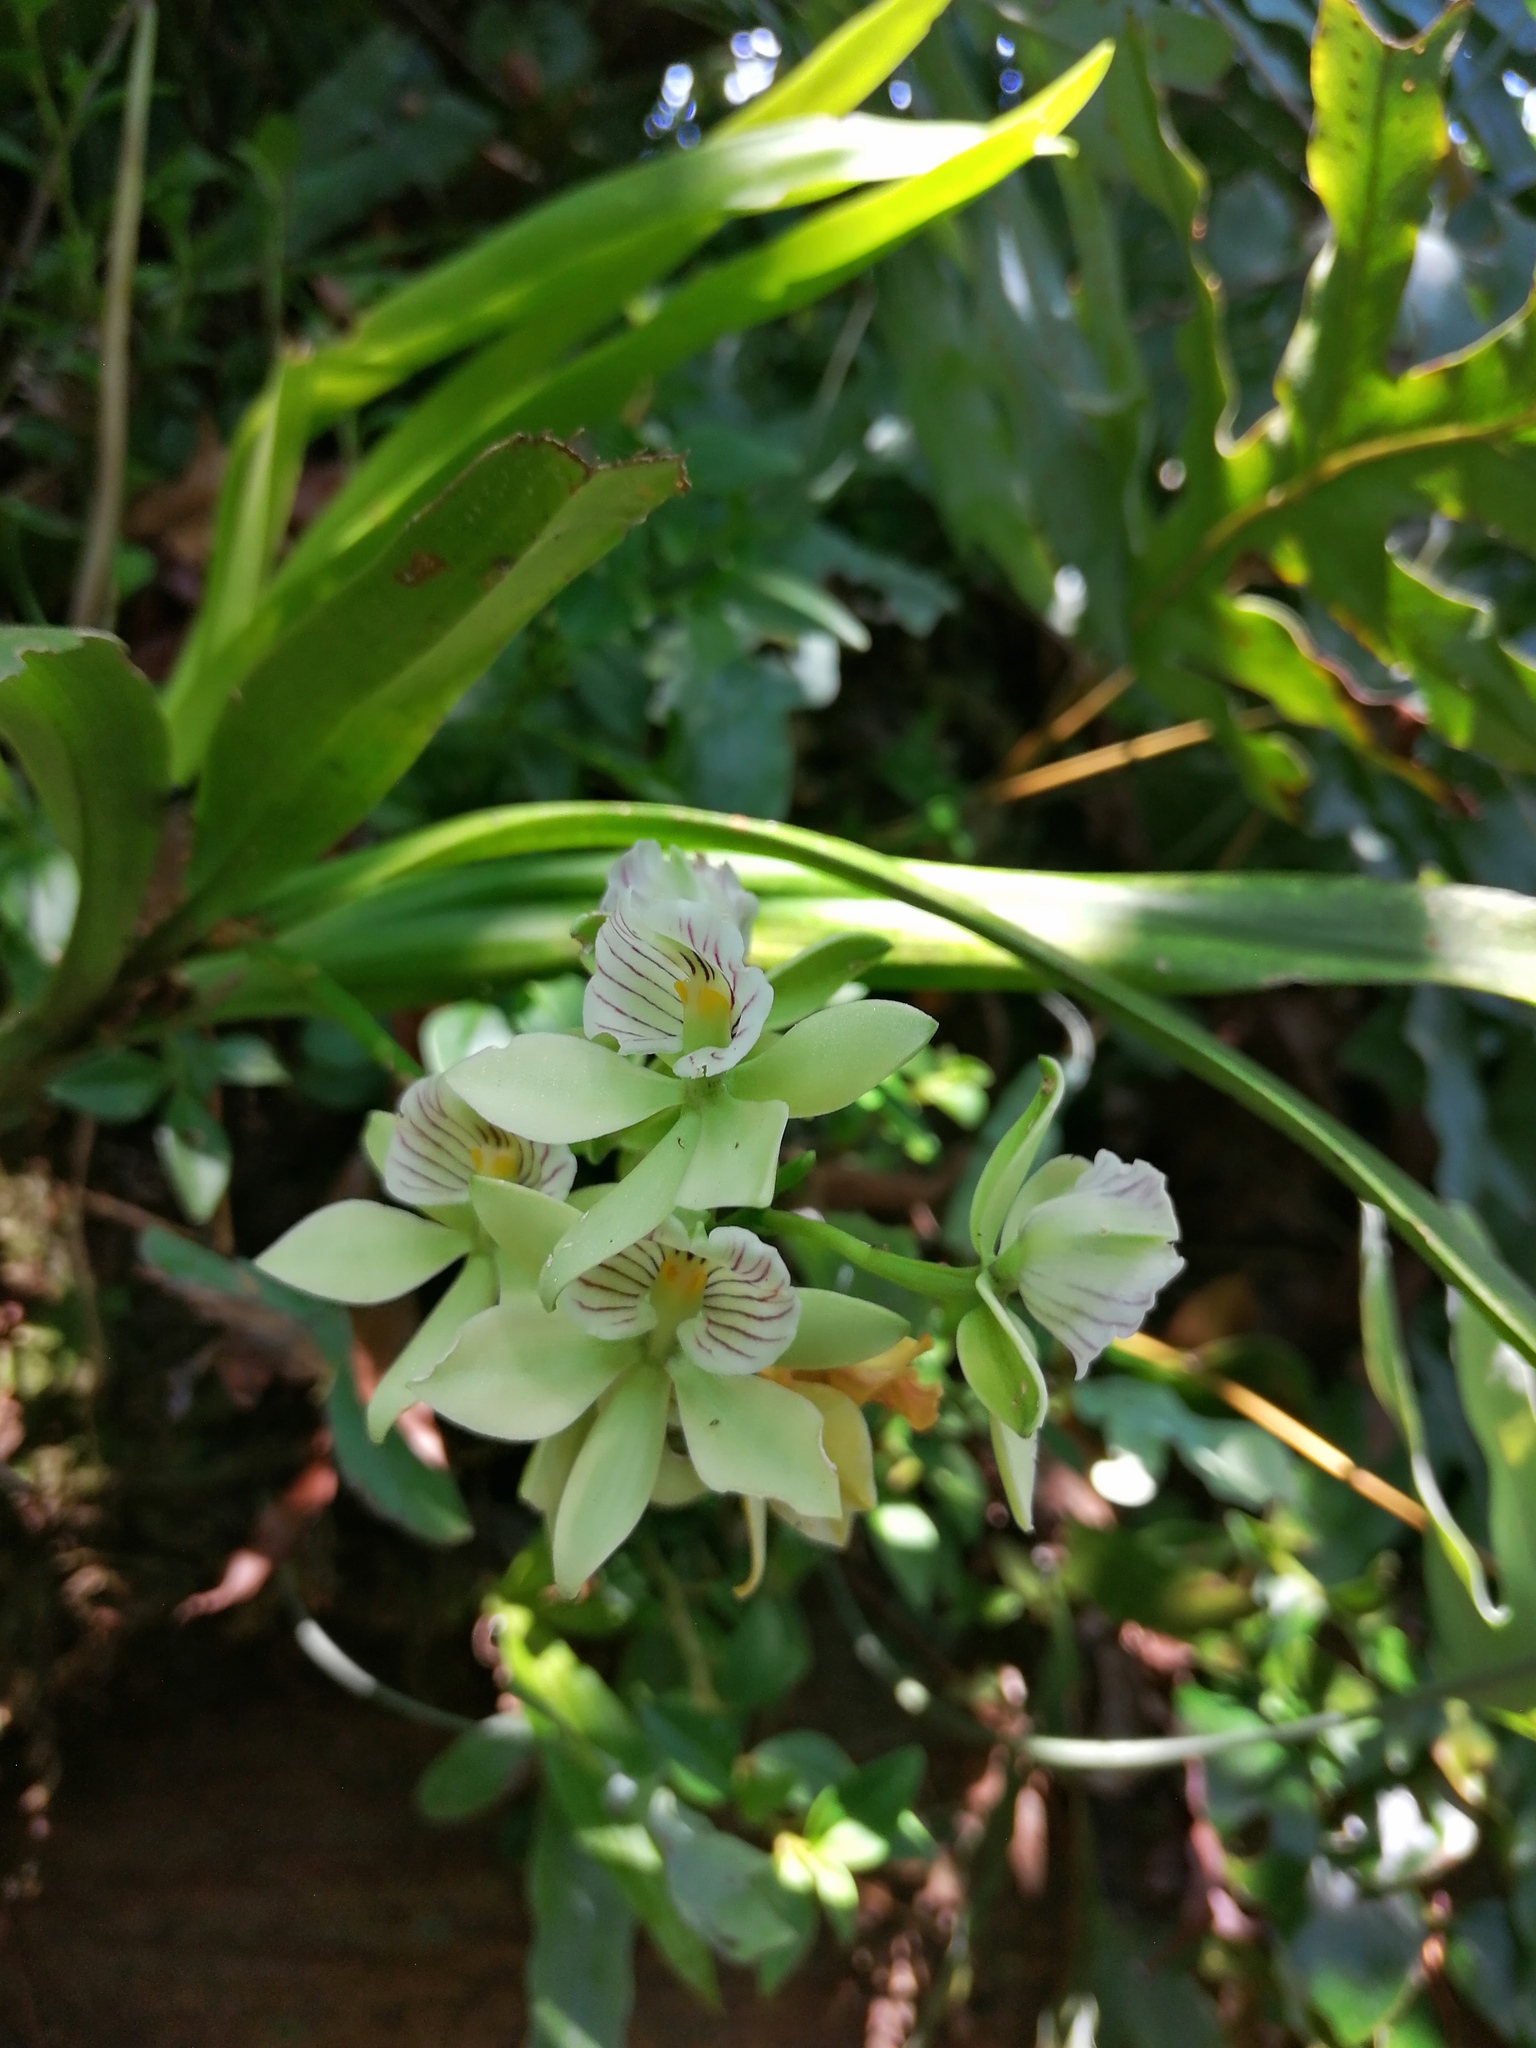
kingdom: Plantae
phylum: Tracheophyta
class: Liliopsida
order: Asparagales
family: Orchidaceae
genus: Prosthechea
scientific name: Prosthechea radiata
